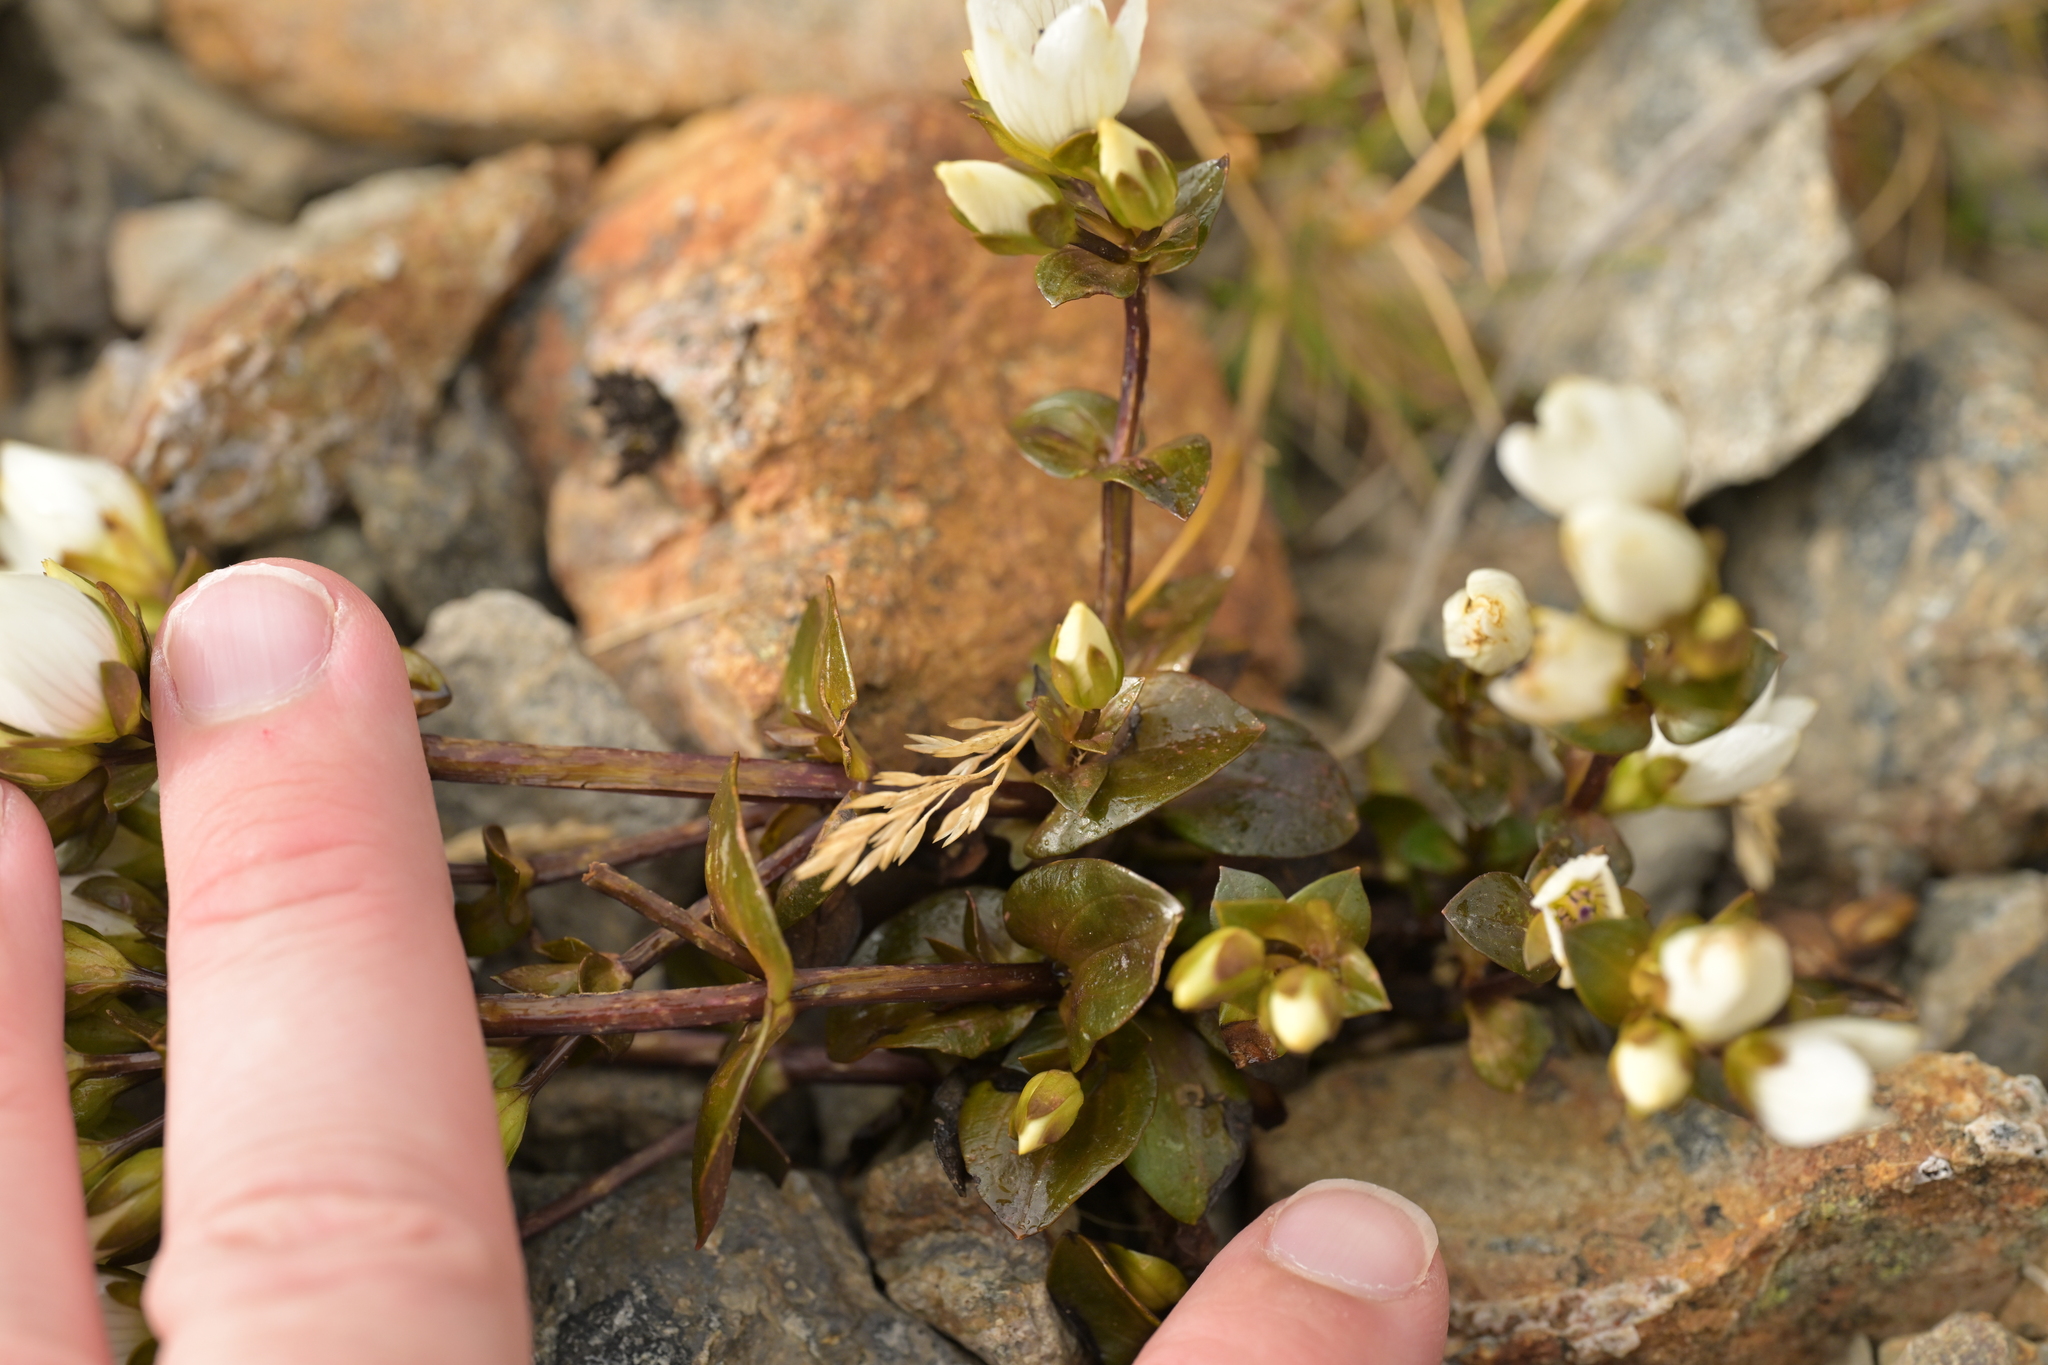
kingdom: Plantae
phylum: Tracheophyta
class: Magnoliopsida
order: Gentianales
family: Gentianaceae
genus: Gentianella
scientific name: Gentianella montana
